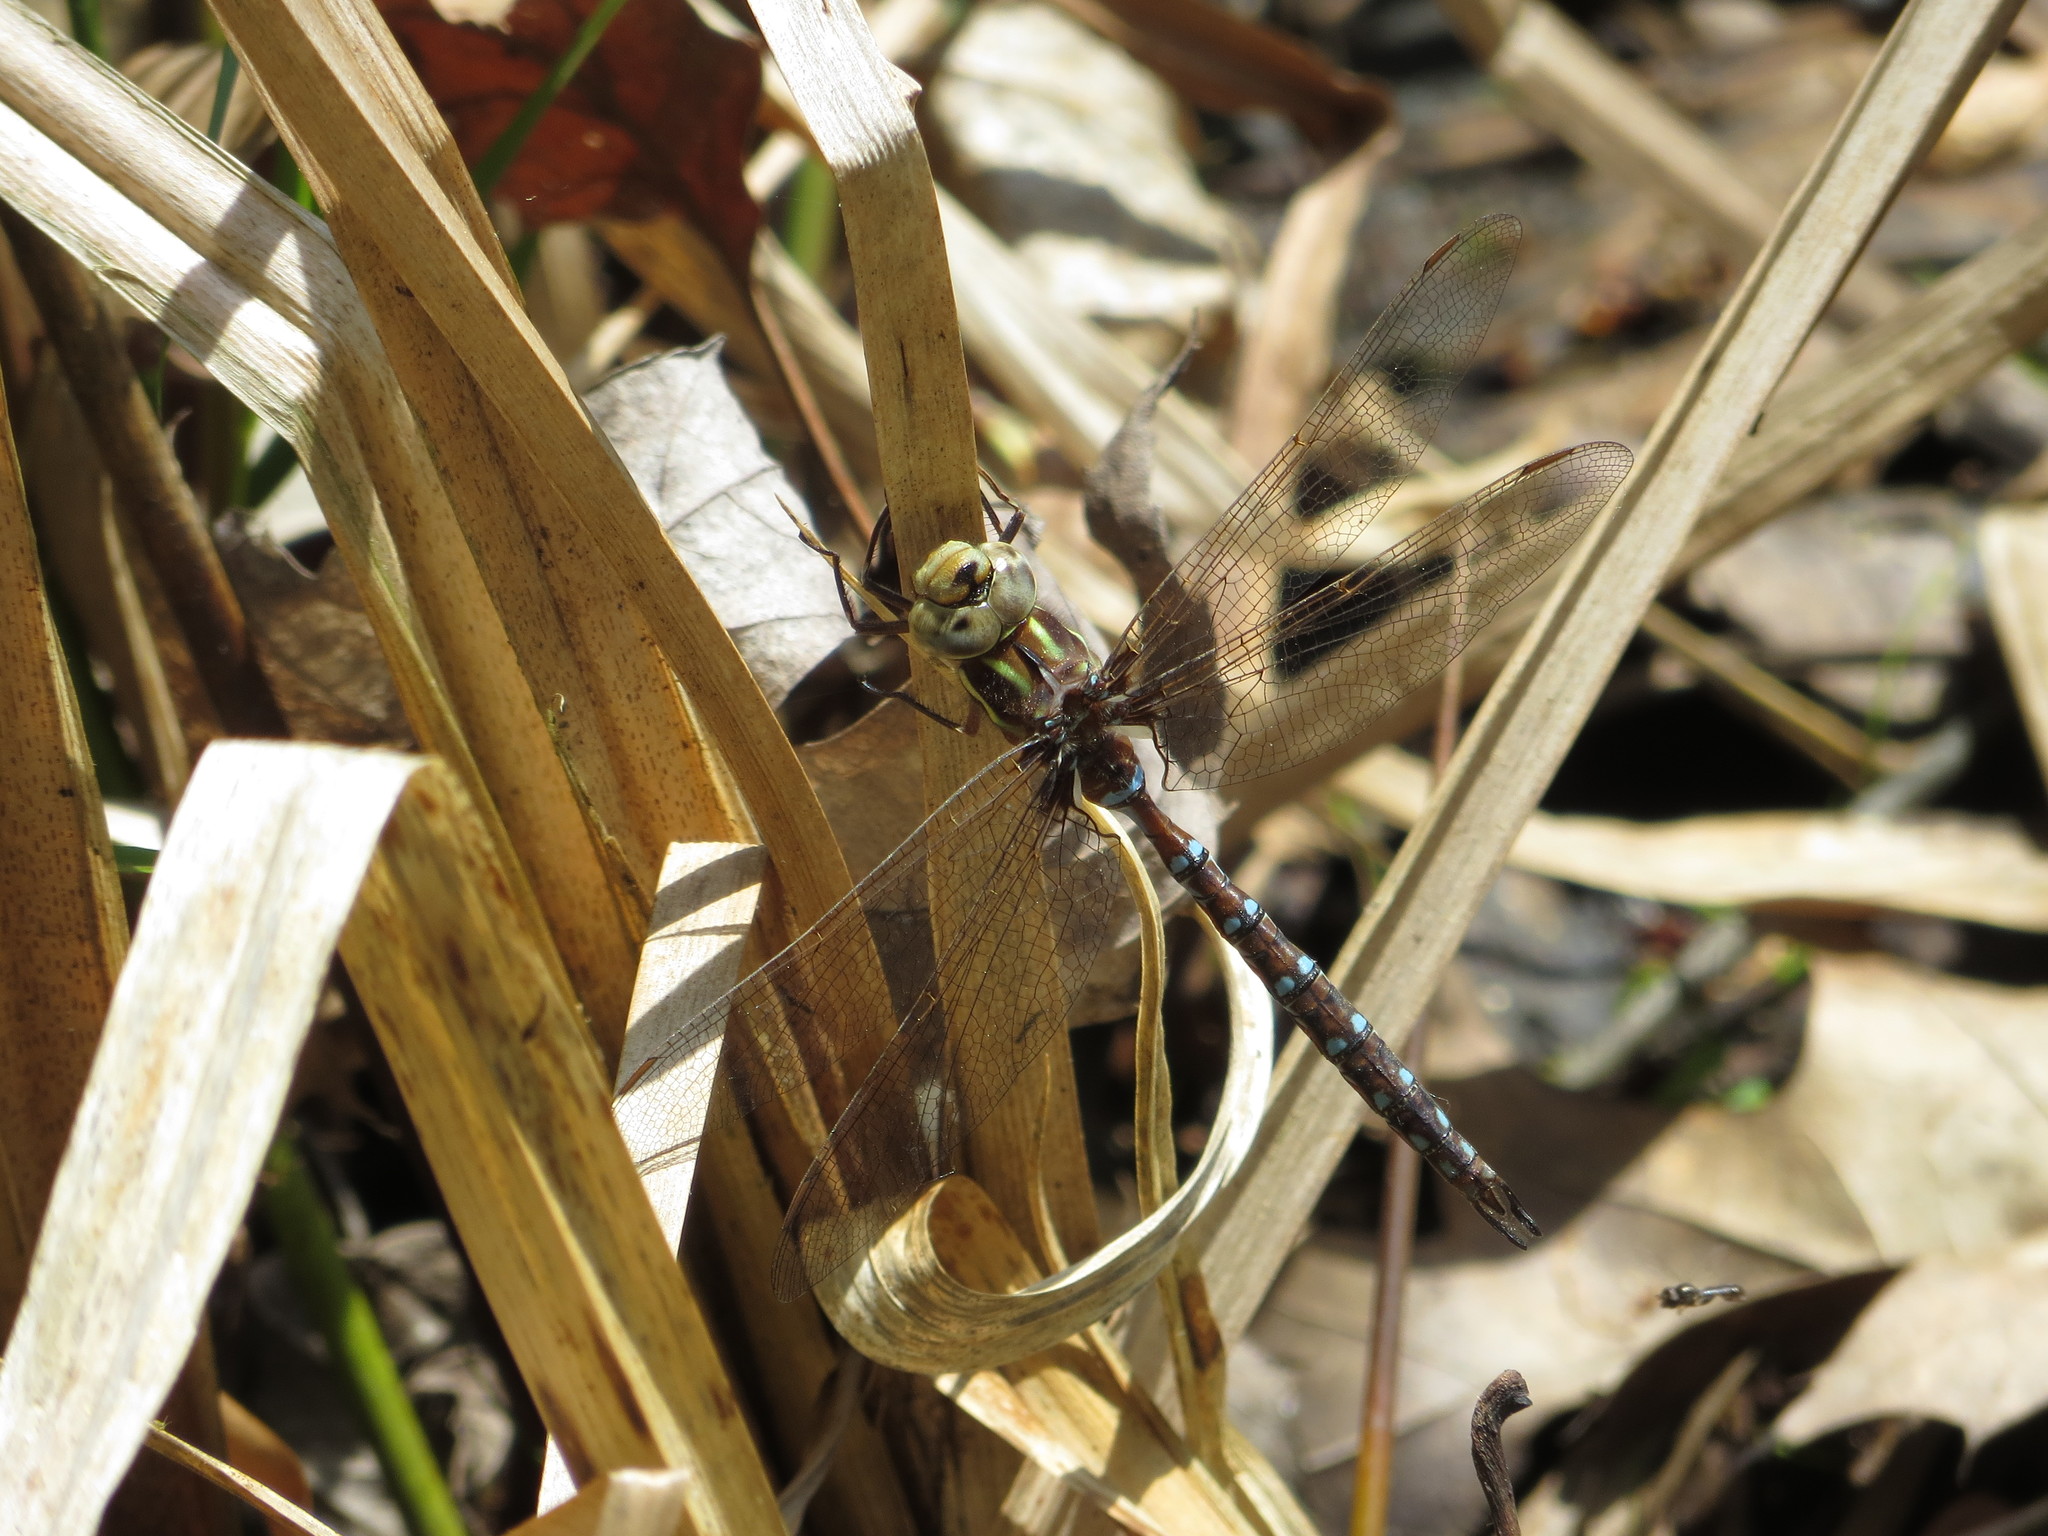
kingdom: Animalia
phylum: Arthropoda
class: Insecta
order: Odonata
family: Aeshnidae
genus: Basiaeschna
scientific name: Basiaeschna janata
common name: Springtime darner
